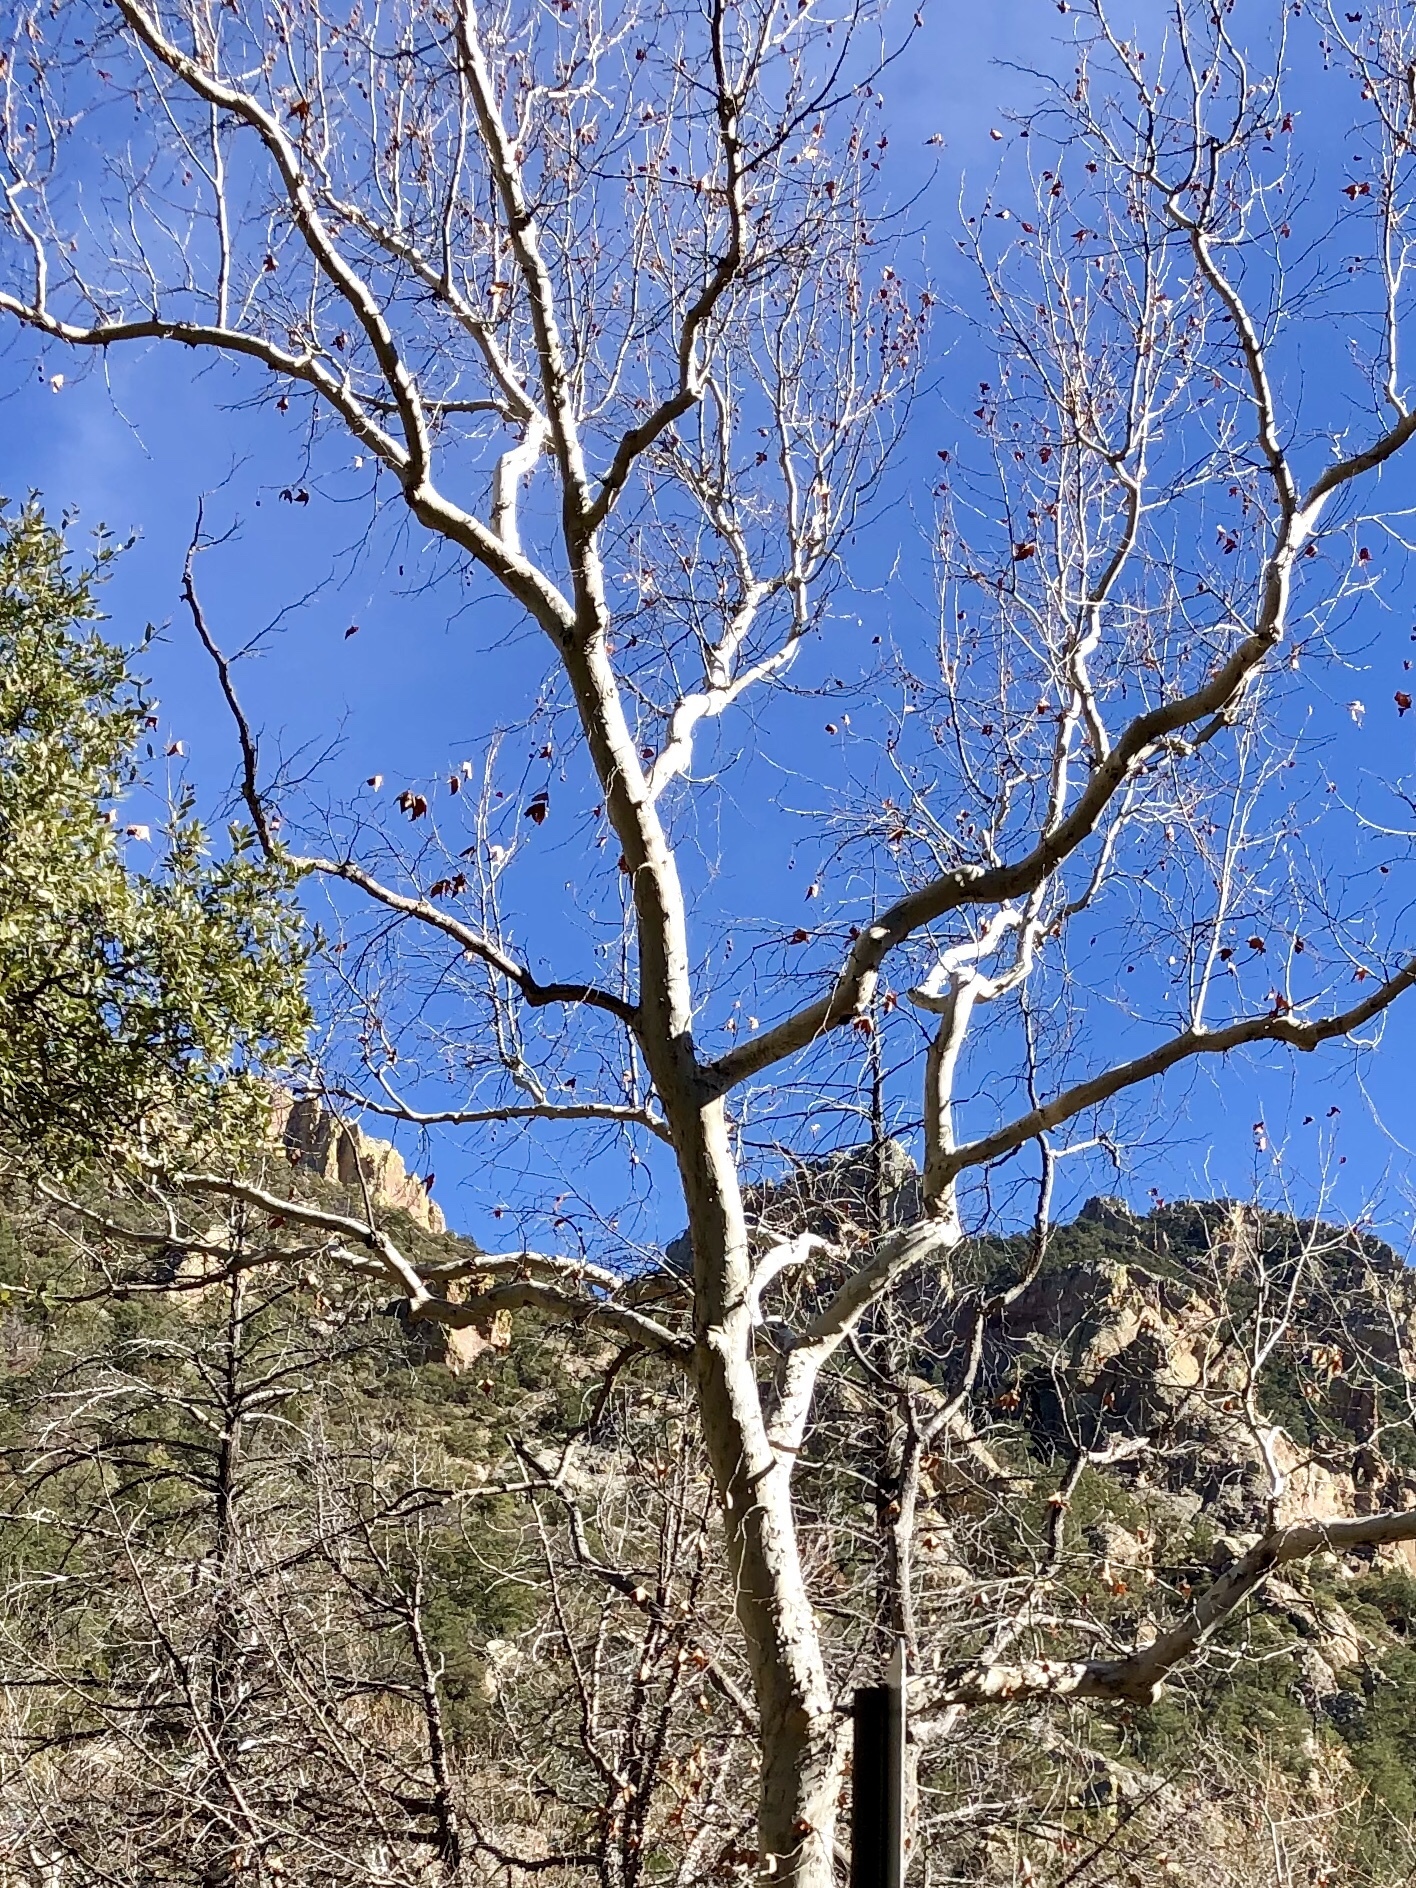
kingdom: Plantae
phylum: Tracheophyta
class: Magnoliopsida
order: Proteales
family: Platanaceae
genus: Platanus
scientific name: Platanus wrightii
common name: Arizona sycamore
